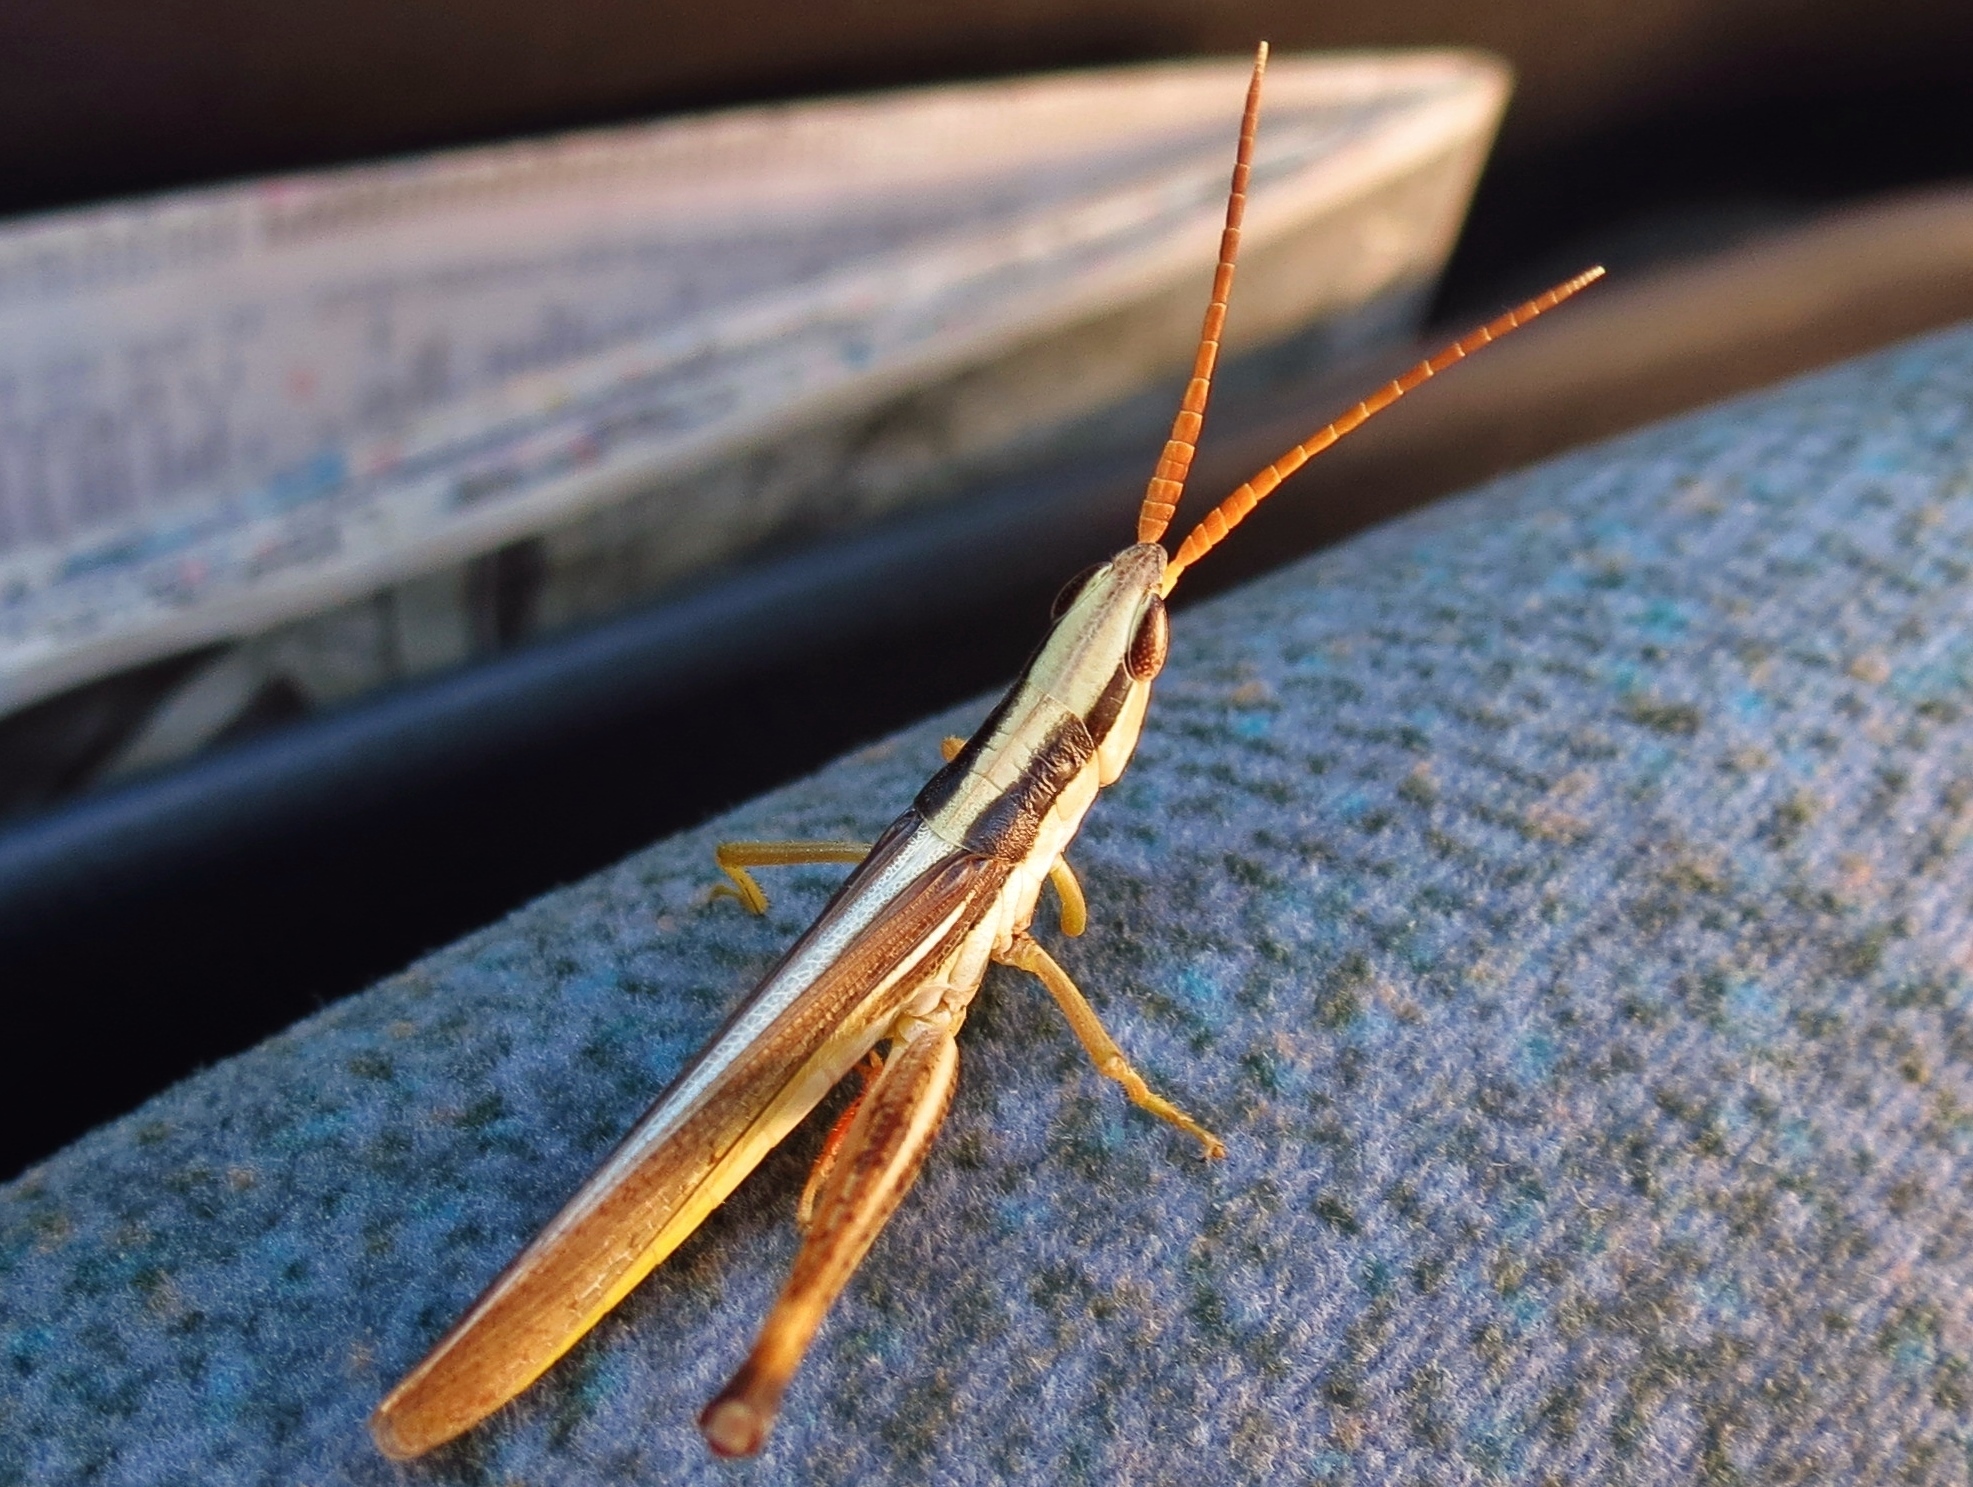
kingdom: Animalia
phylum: Arthropoda
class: Insecta
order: Orthoptera
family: Acrididae
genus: Mermiria
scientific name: Mermiria bivittata
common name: Two-striped mermiria grasshopper
